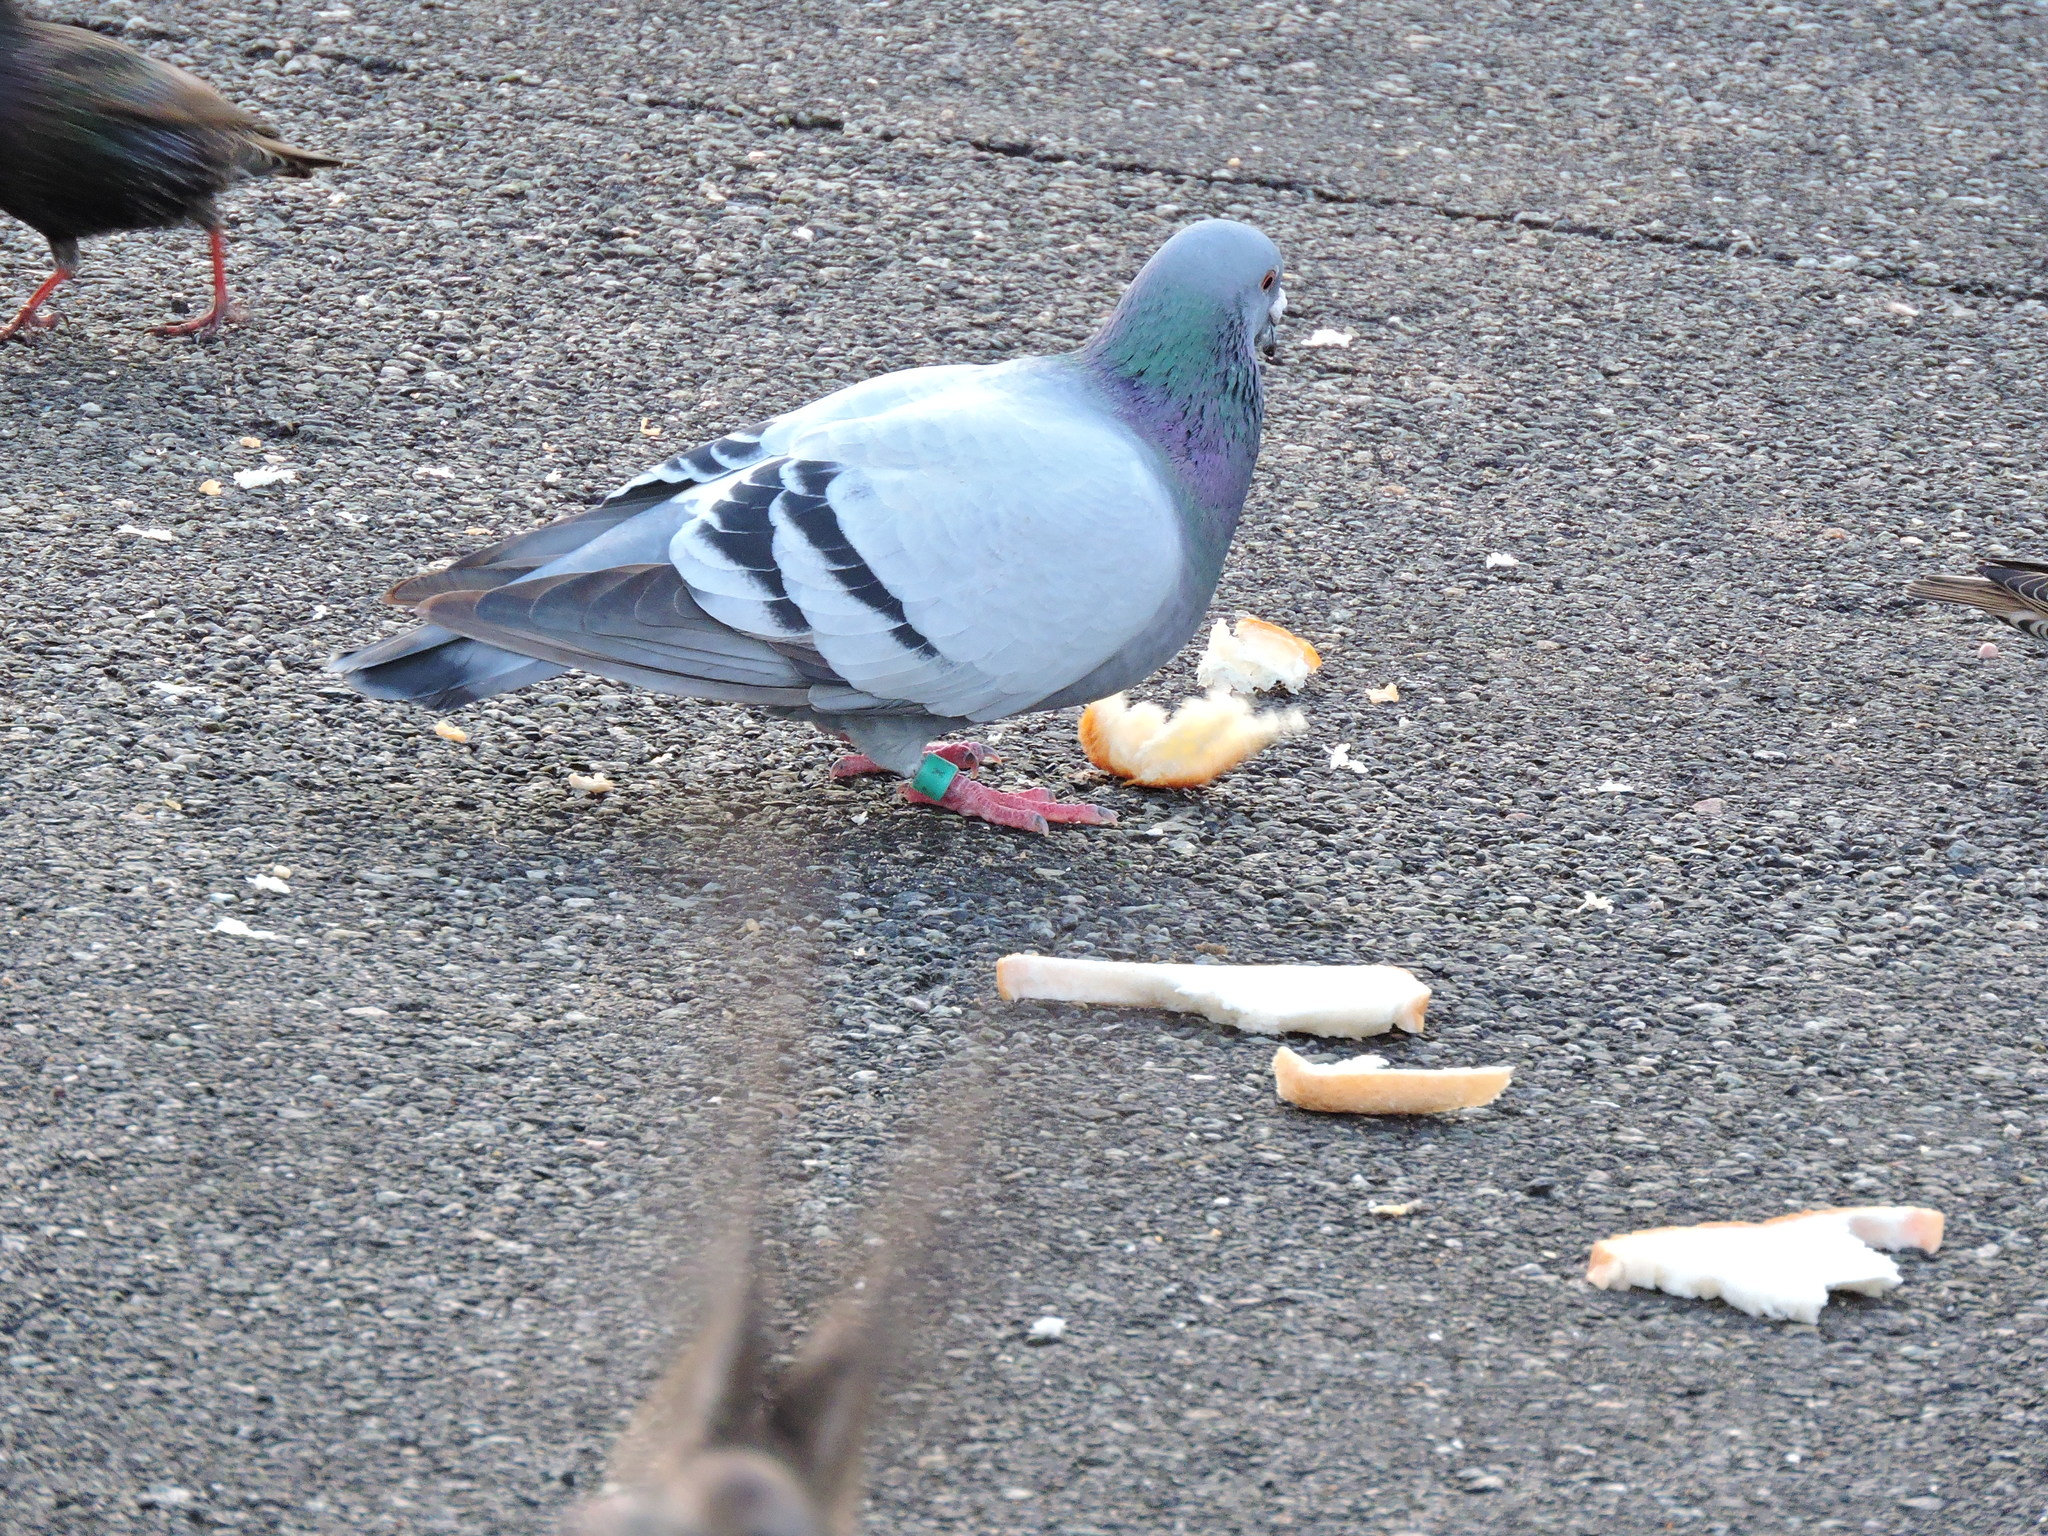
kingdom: Animalia
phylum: Chordata
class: Aves
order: Columbiformes
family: Columbidae
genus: Columba
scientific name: Columba livia
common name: Rock pigeon
